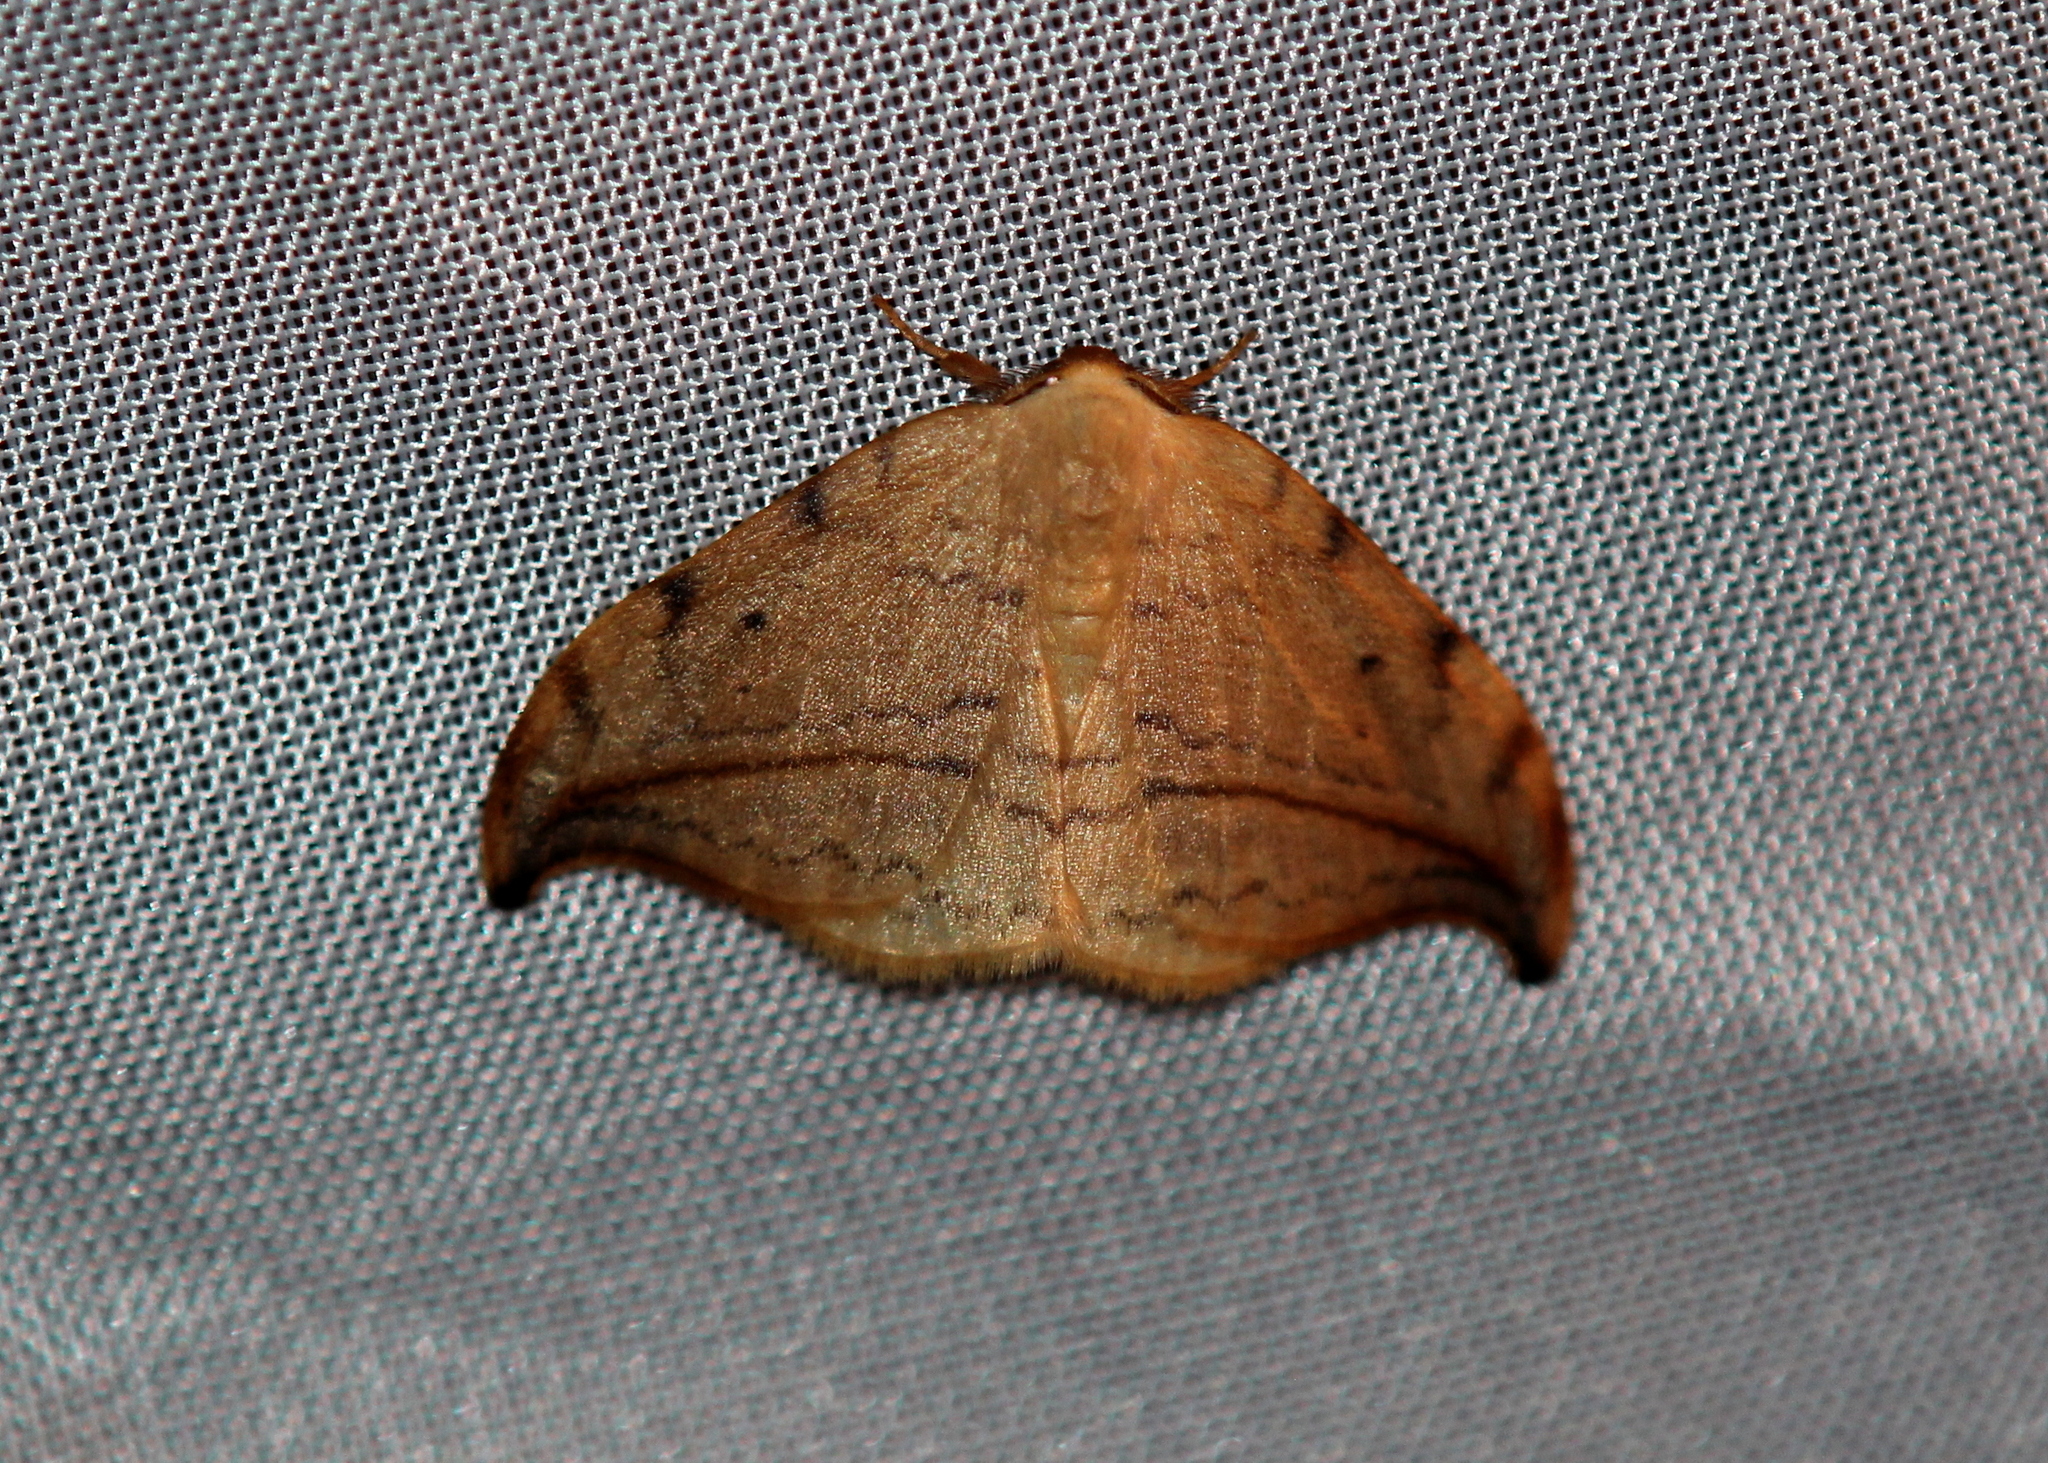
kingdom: Animalia
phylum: Arthropoda
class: Insecta
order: Lepidoptera
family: Drepanidae
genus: Drepana
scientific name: Drepana arcuata
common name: Arched hooktip moth
